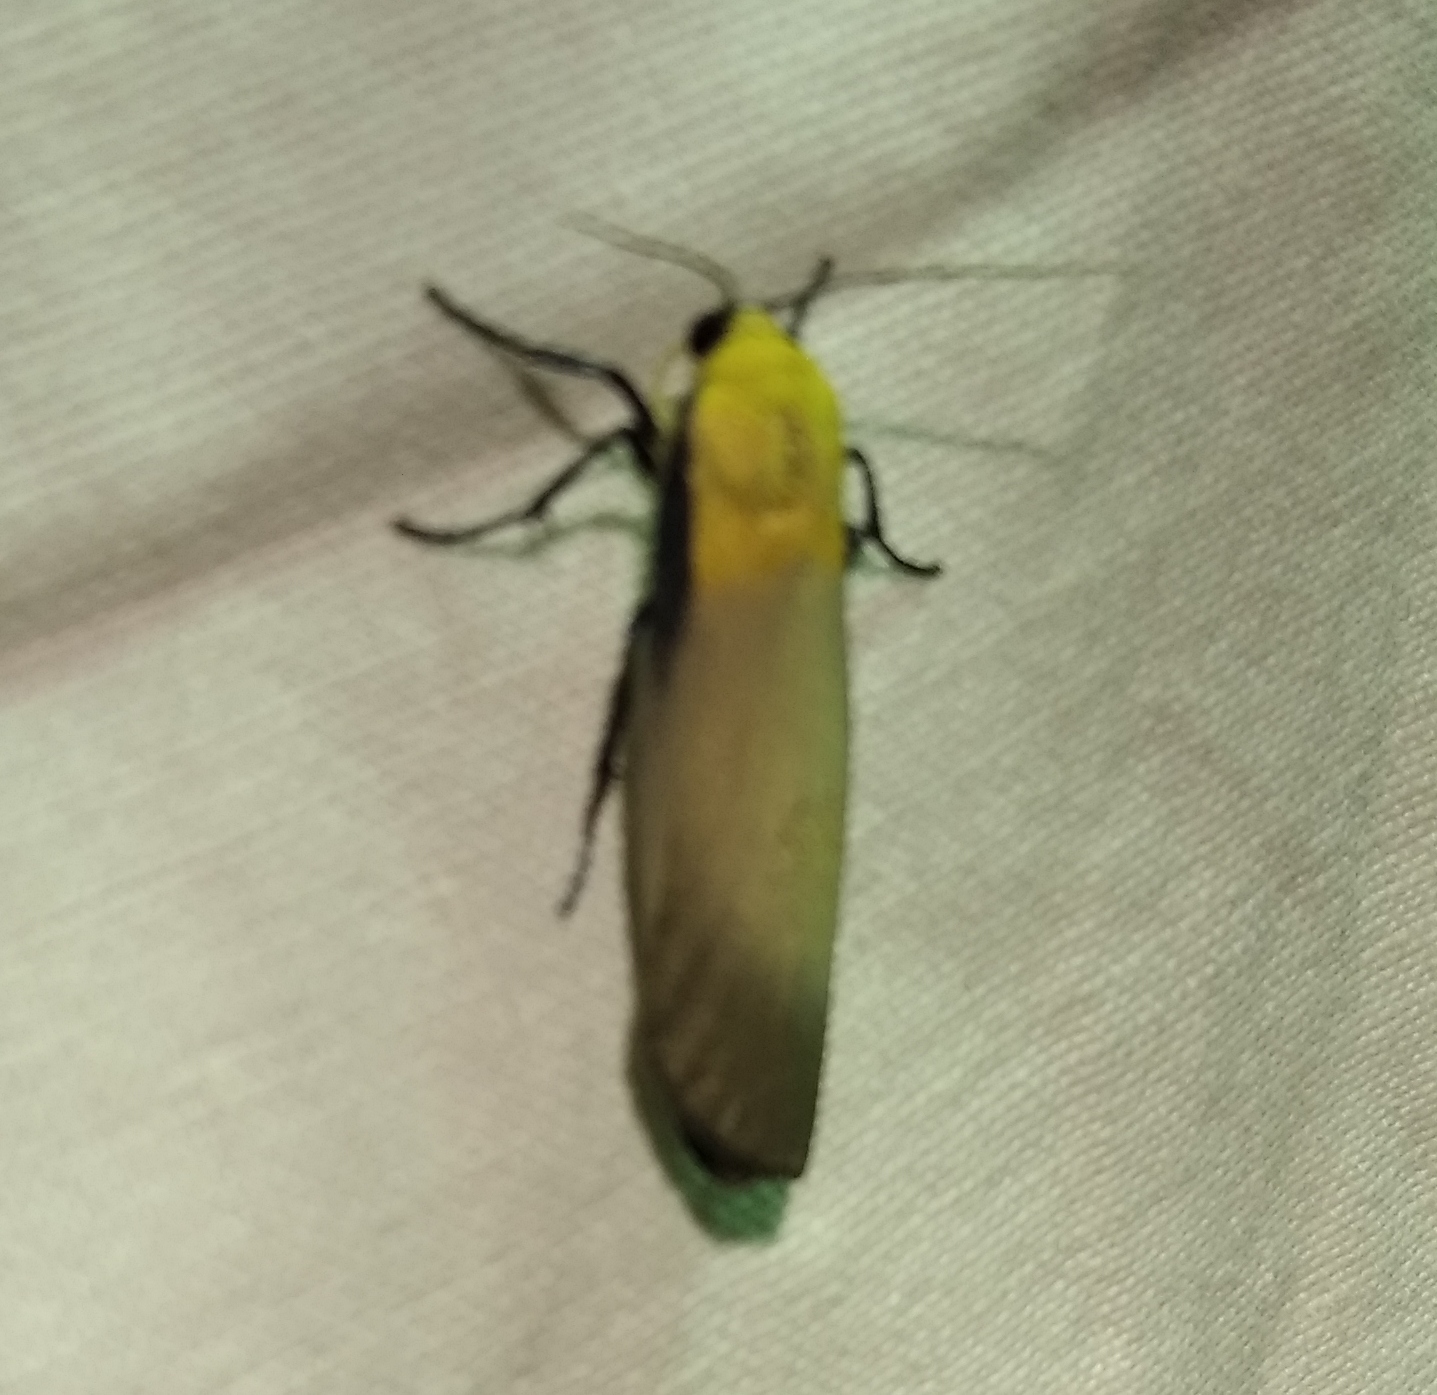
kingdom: Animalia
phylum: Arthropoda
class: Insecta
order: Lepidoptera
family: Erebidae
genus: Lithosia
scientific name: Lithosia quadra
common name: Four-spotted footman
